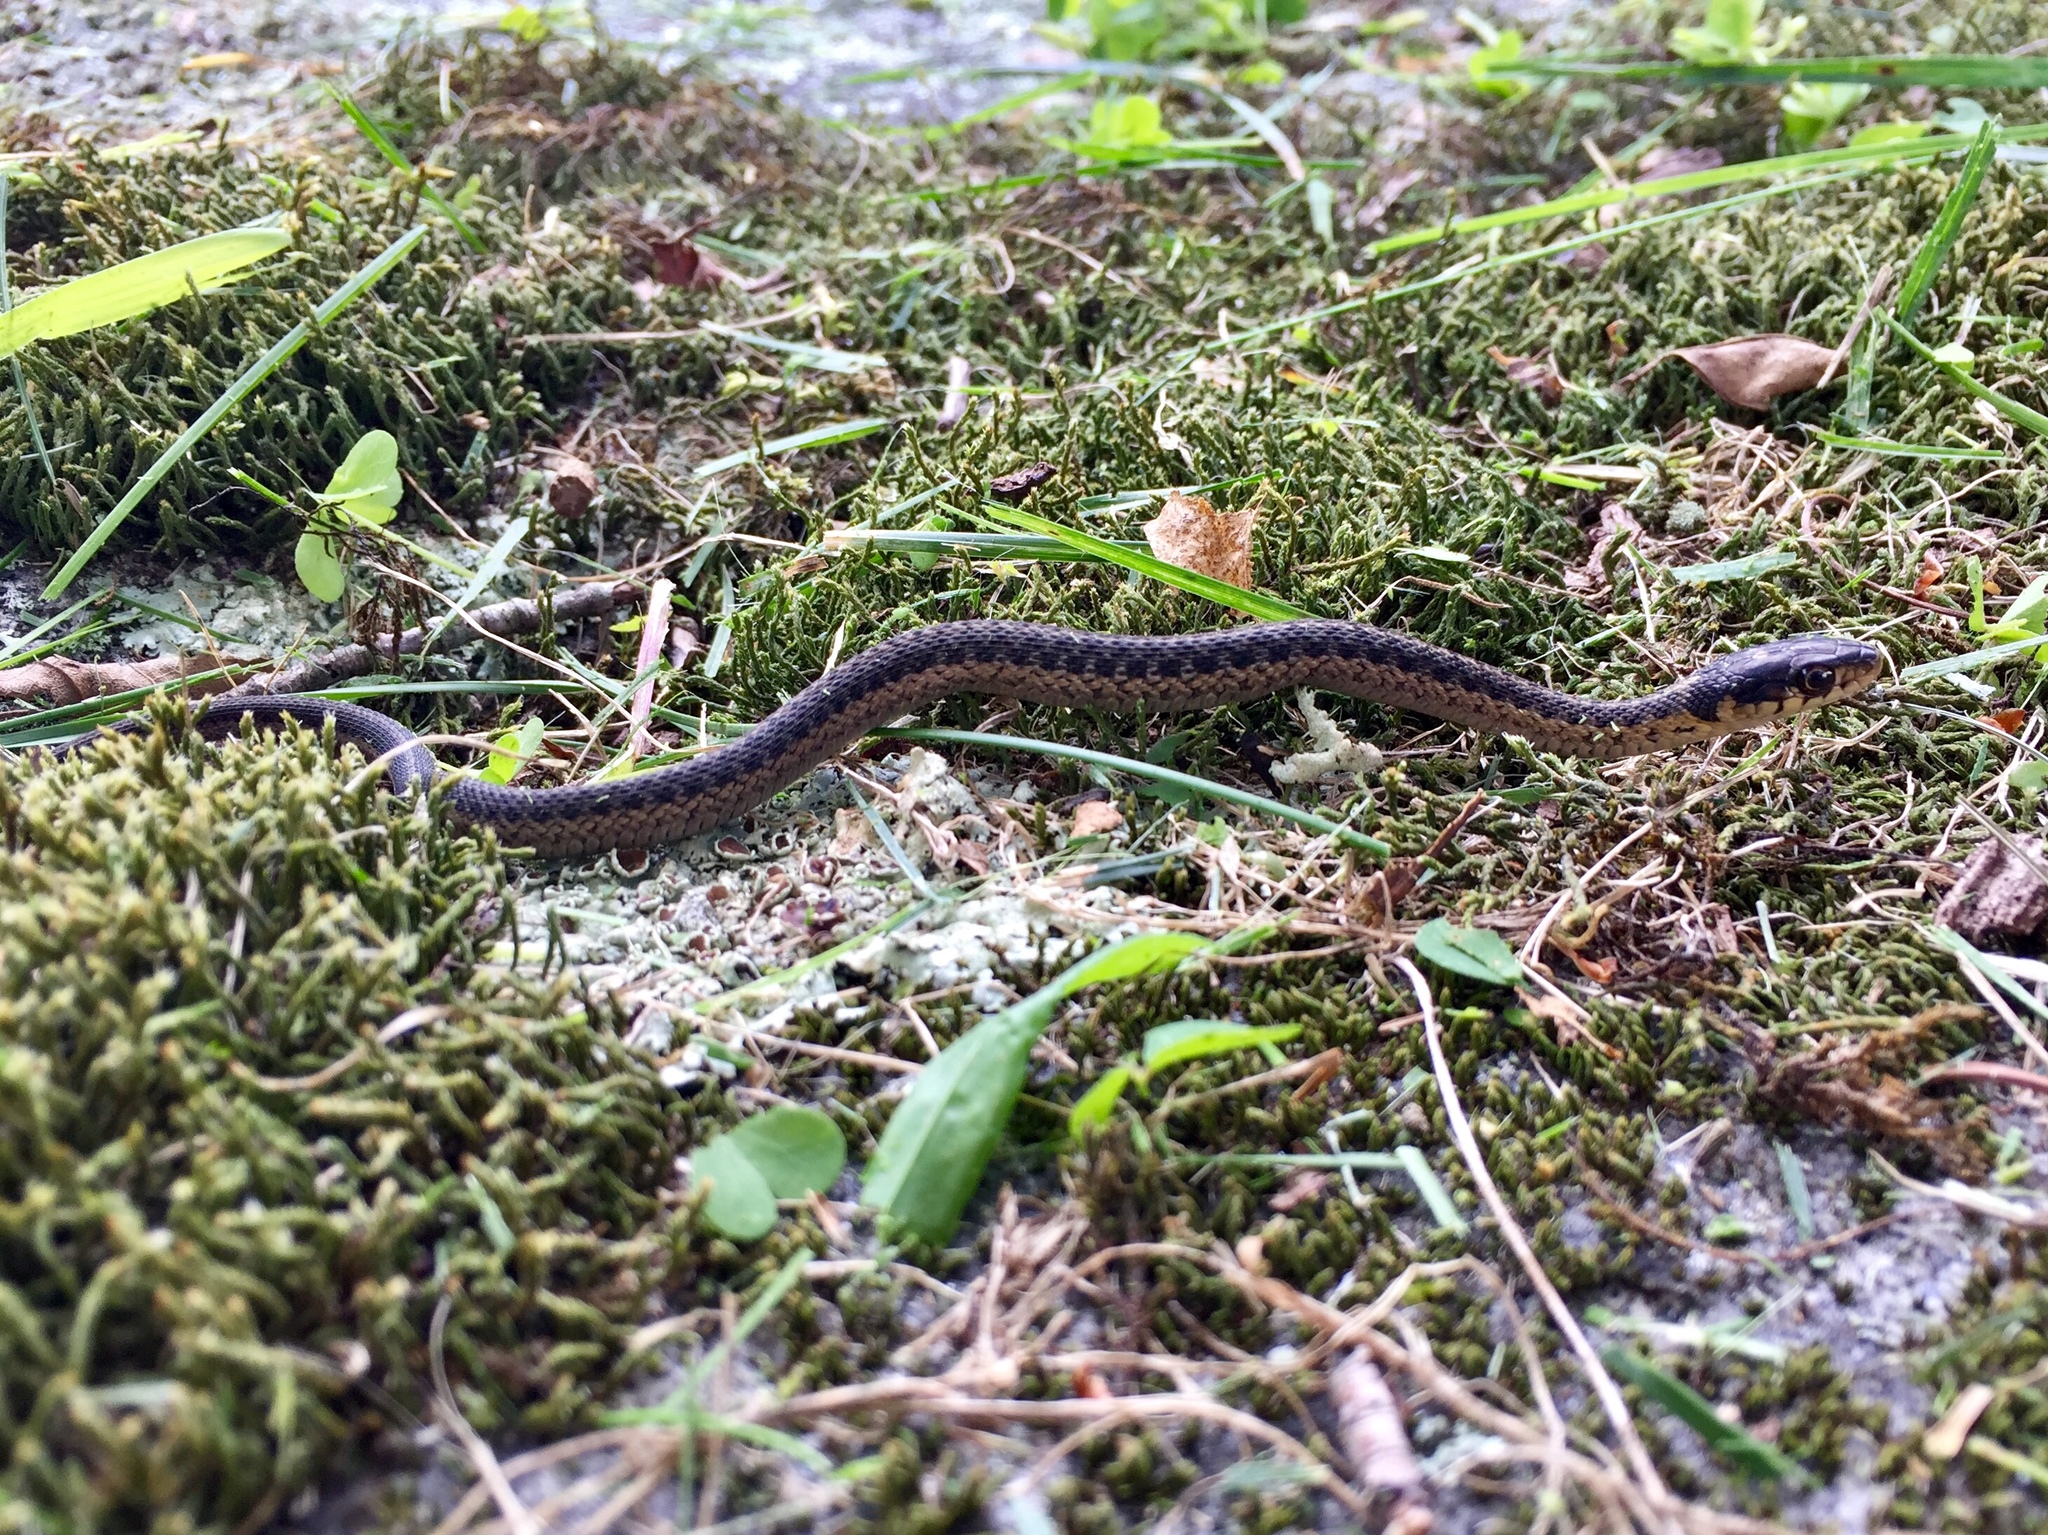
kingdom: Animalia
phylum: Chordata
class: Squamata
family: Colubridae
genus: Thamnophis
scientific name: Thamnophis sirtalis
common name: Common garter snake
